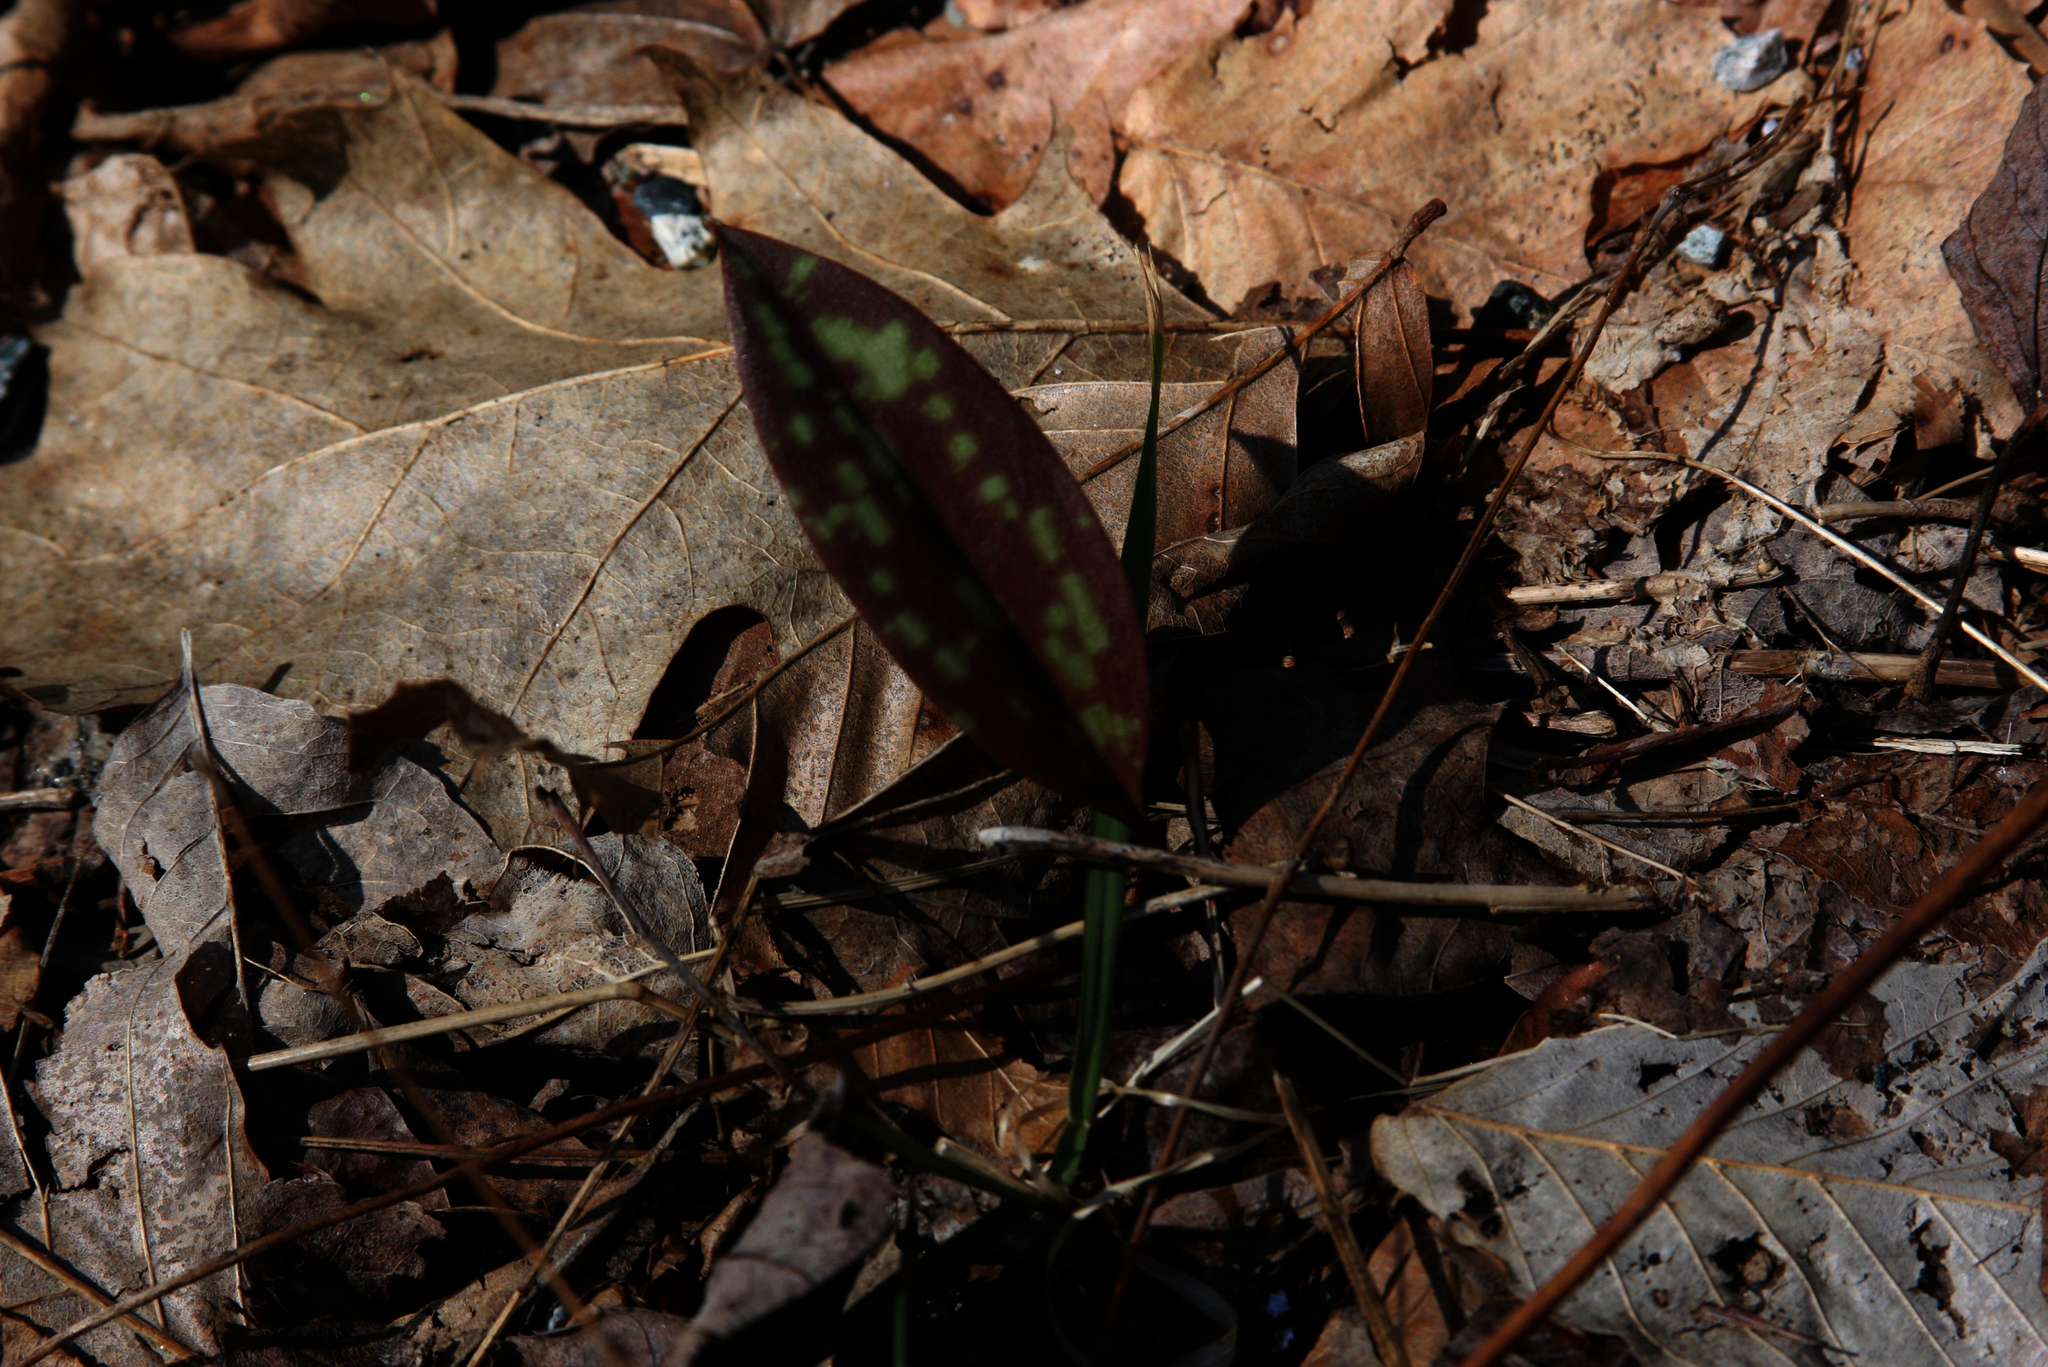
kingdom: Plantae
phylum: Tracheophyta
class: Liliopsida
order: Liliales
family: Liliaceae
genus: Erythronium
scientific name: Erythronium americanum
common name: Yellow adder's-tongue
